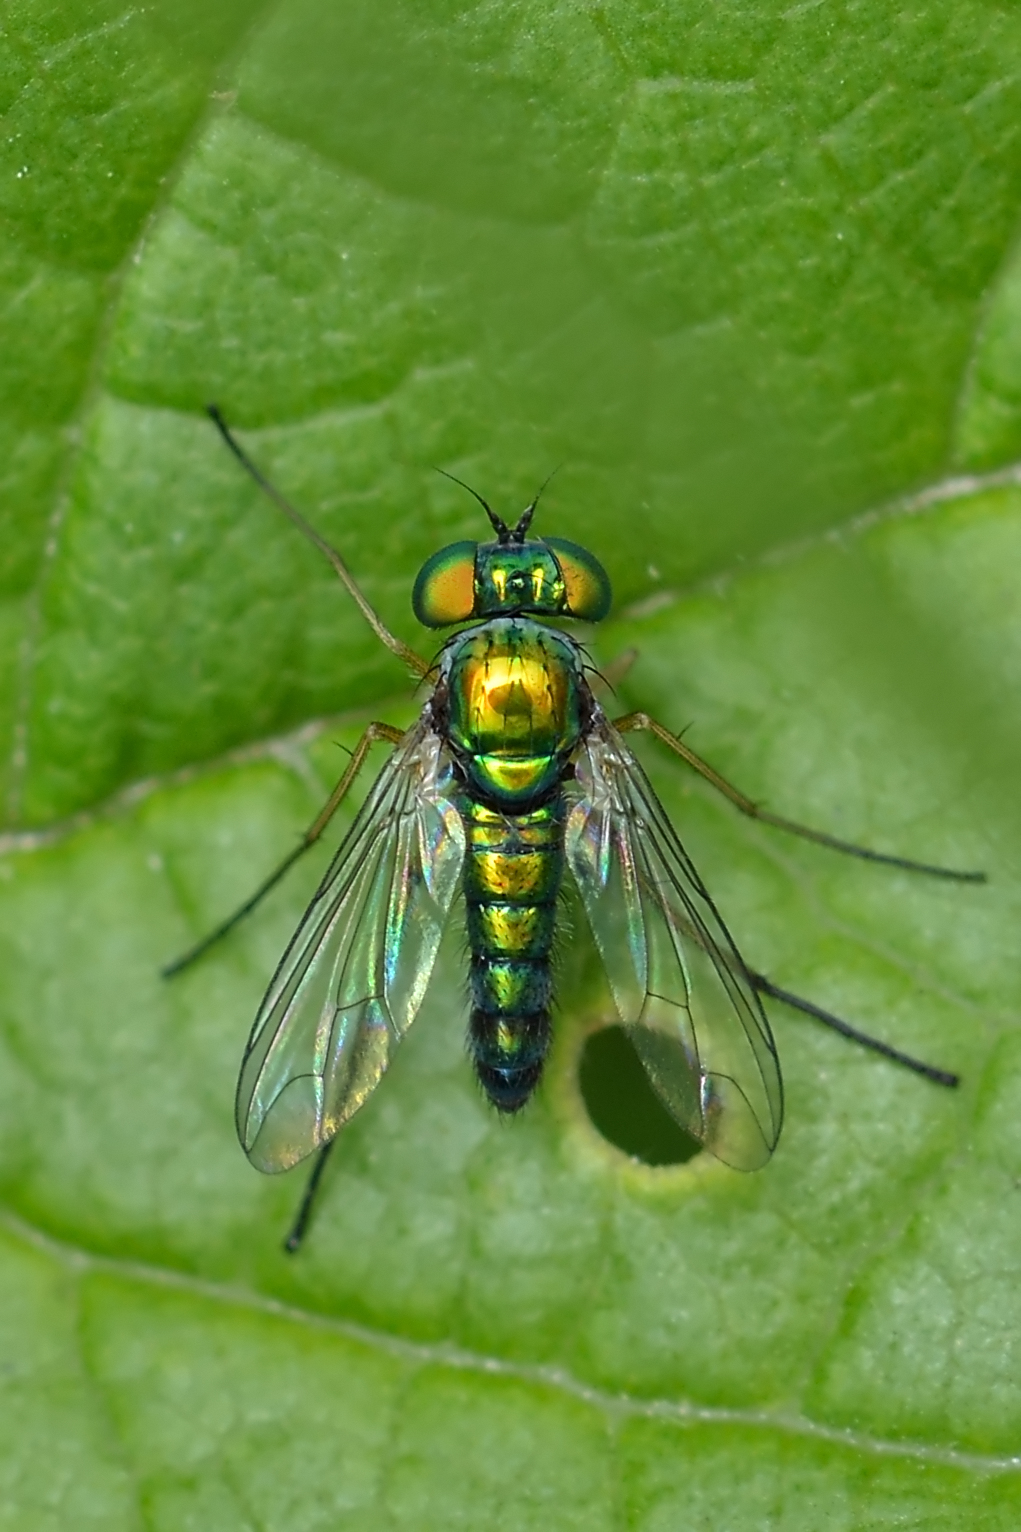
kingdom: Animalia
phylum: Arthropoda
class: Insecta
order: Diptera
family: Dolichopodidae
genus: Condylostylus
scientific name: Condylostylus flavipes
